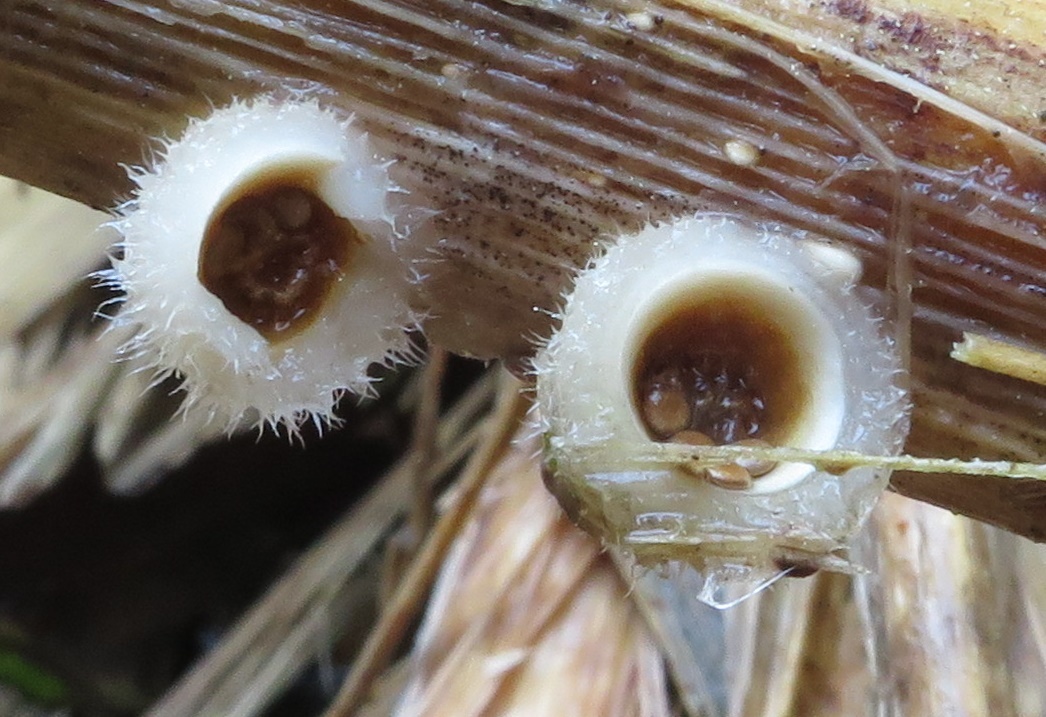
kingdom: Fungi
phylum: Basidiomycota
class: Agaricomycetes
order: Agaricales
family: Agaricaceae
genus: Nidula
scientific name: Nidula niveotomentosa
